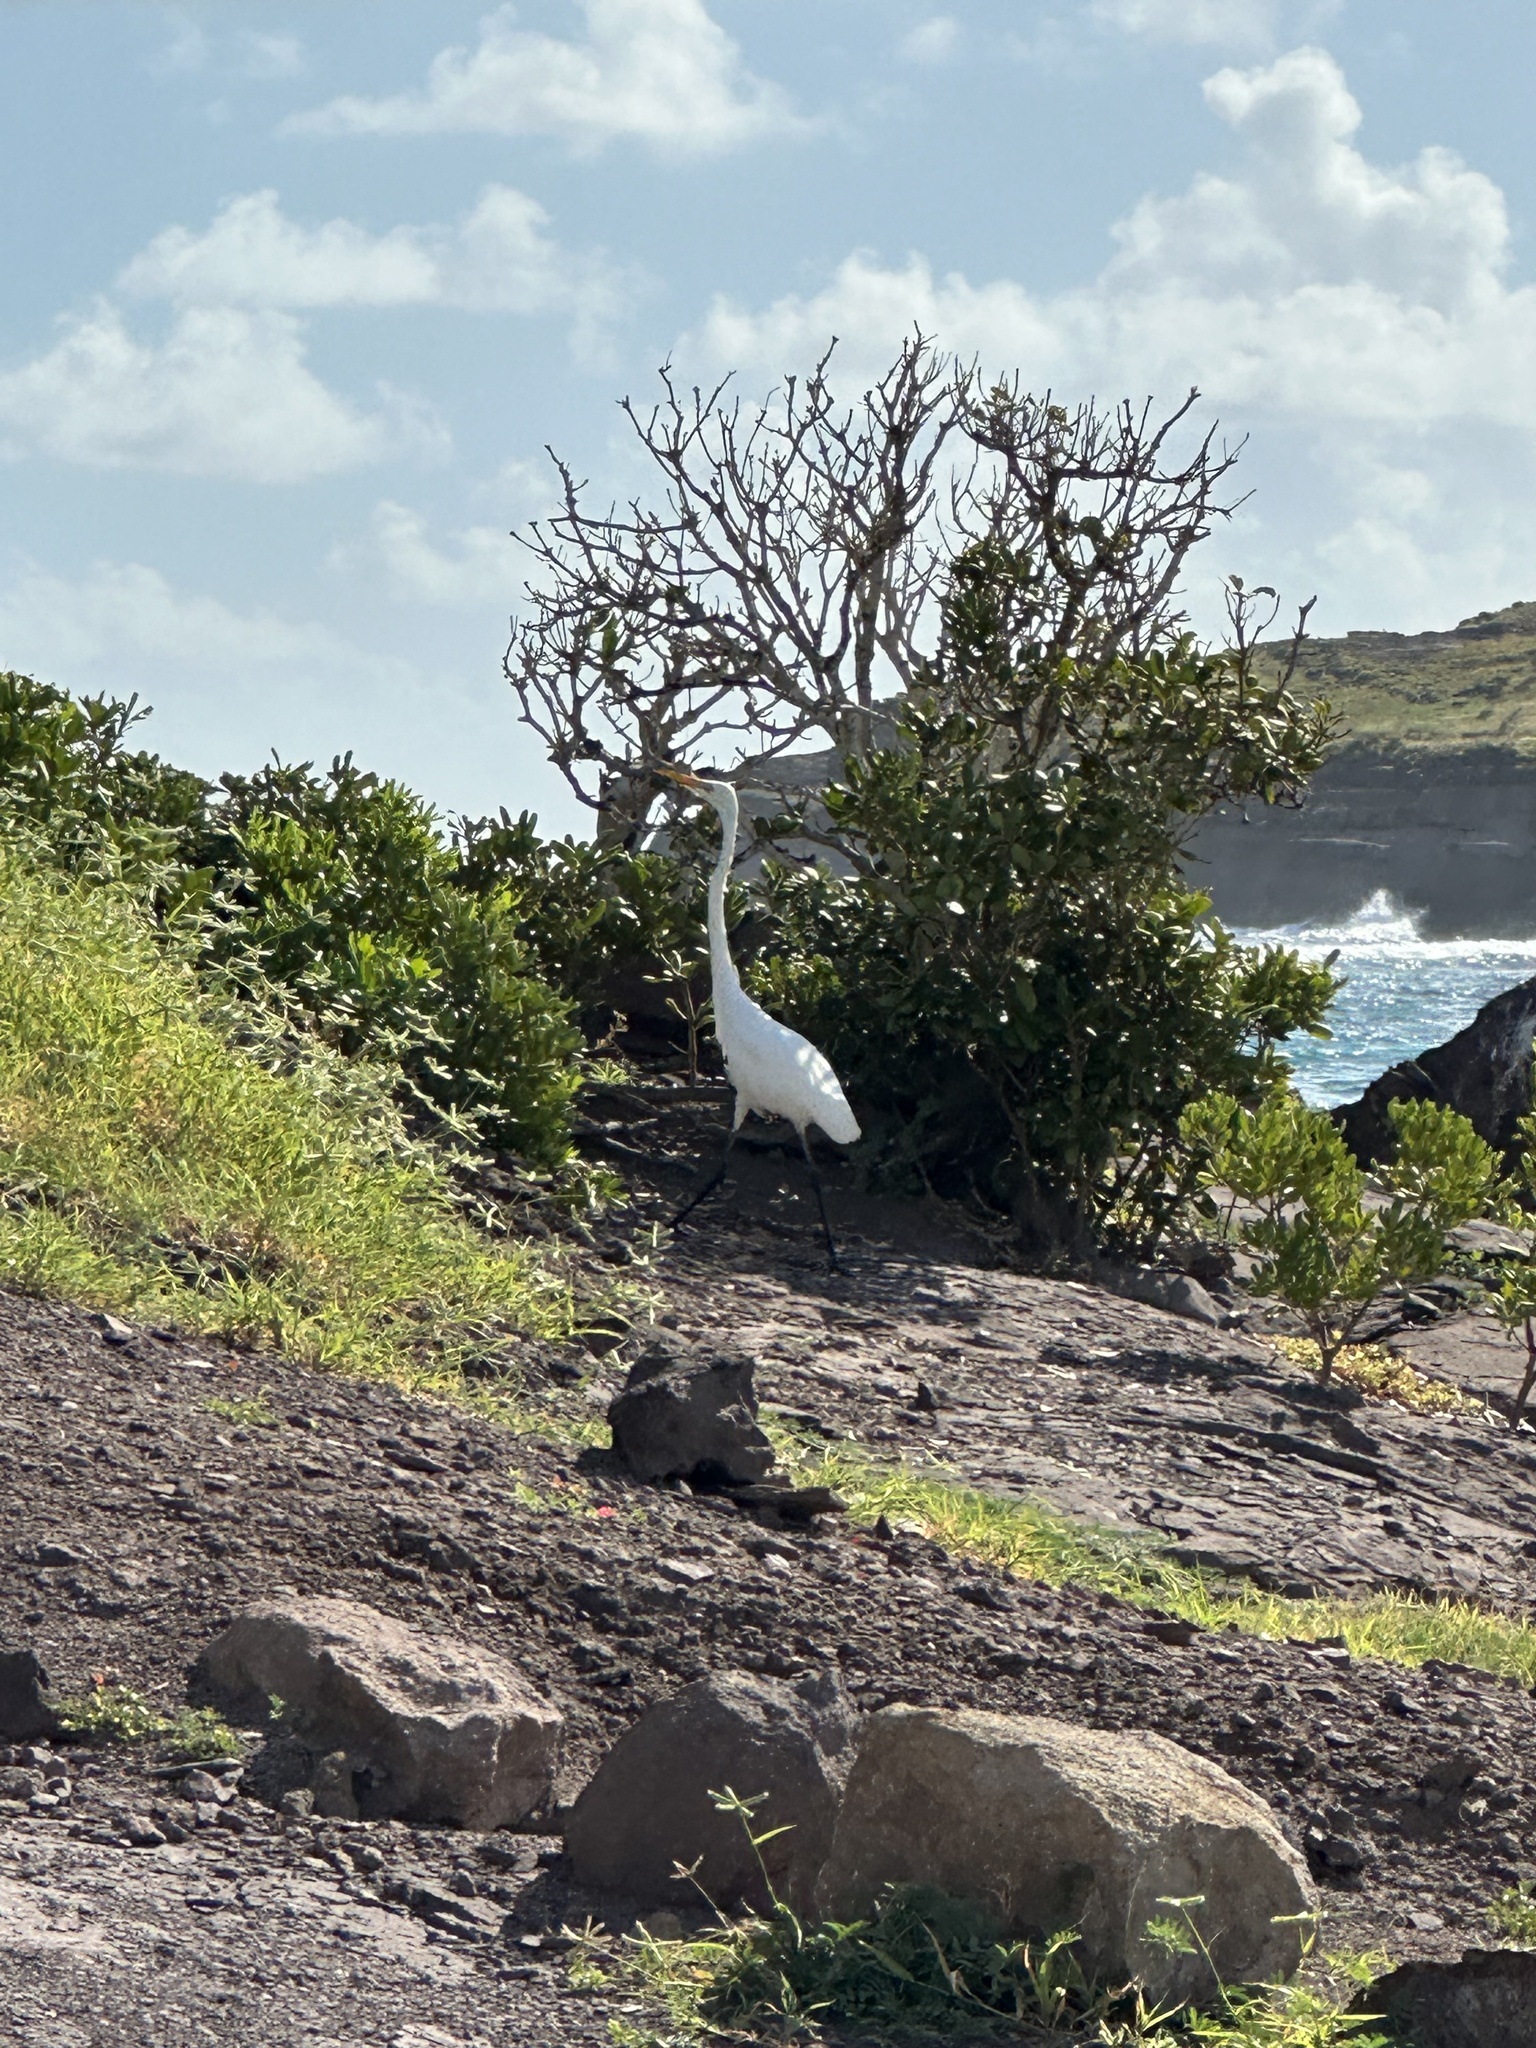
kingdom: Animalia
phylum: Chordata
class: Aves
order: Pelecaniformes
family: Ardeidae
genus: Ardea
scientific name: Ardea alba
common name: Great egret
